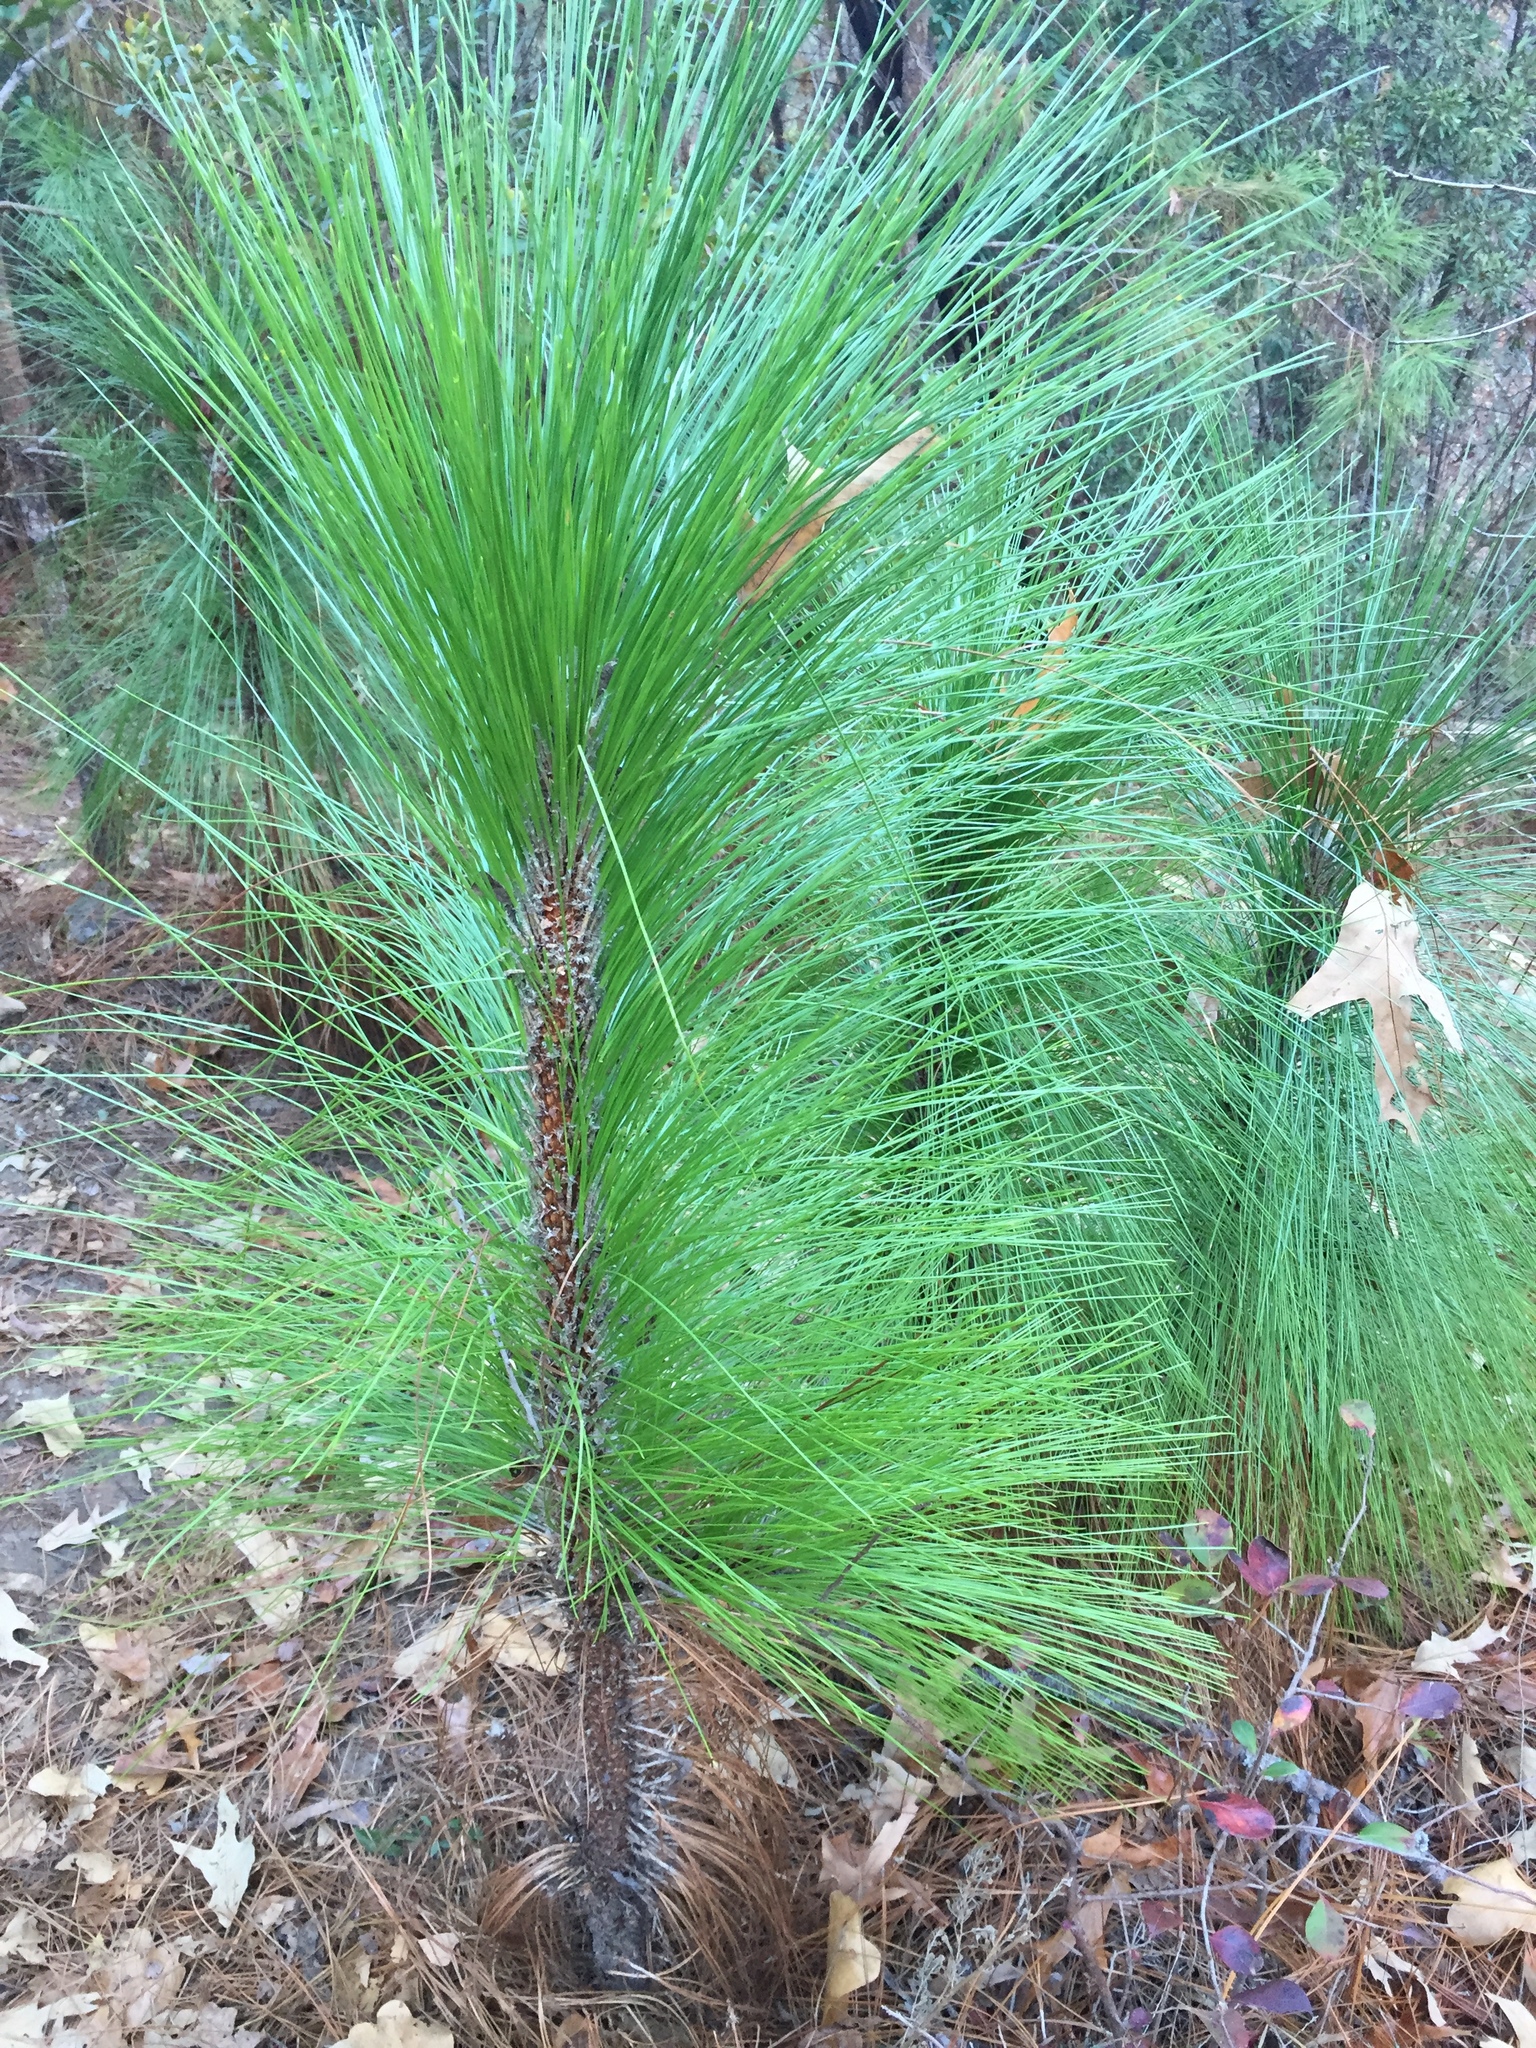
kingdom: Plantae
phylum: Tracheophyta
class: Pinopsida
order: Pinales
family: Pinaceae
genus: Pinus
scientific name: Pinus palustris
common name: Longleaf pine
